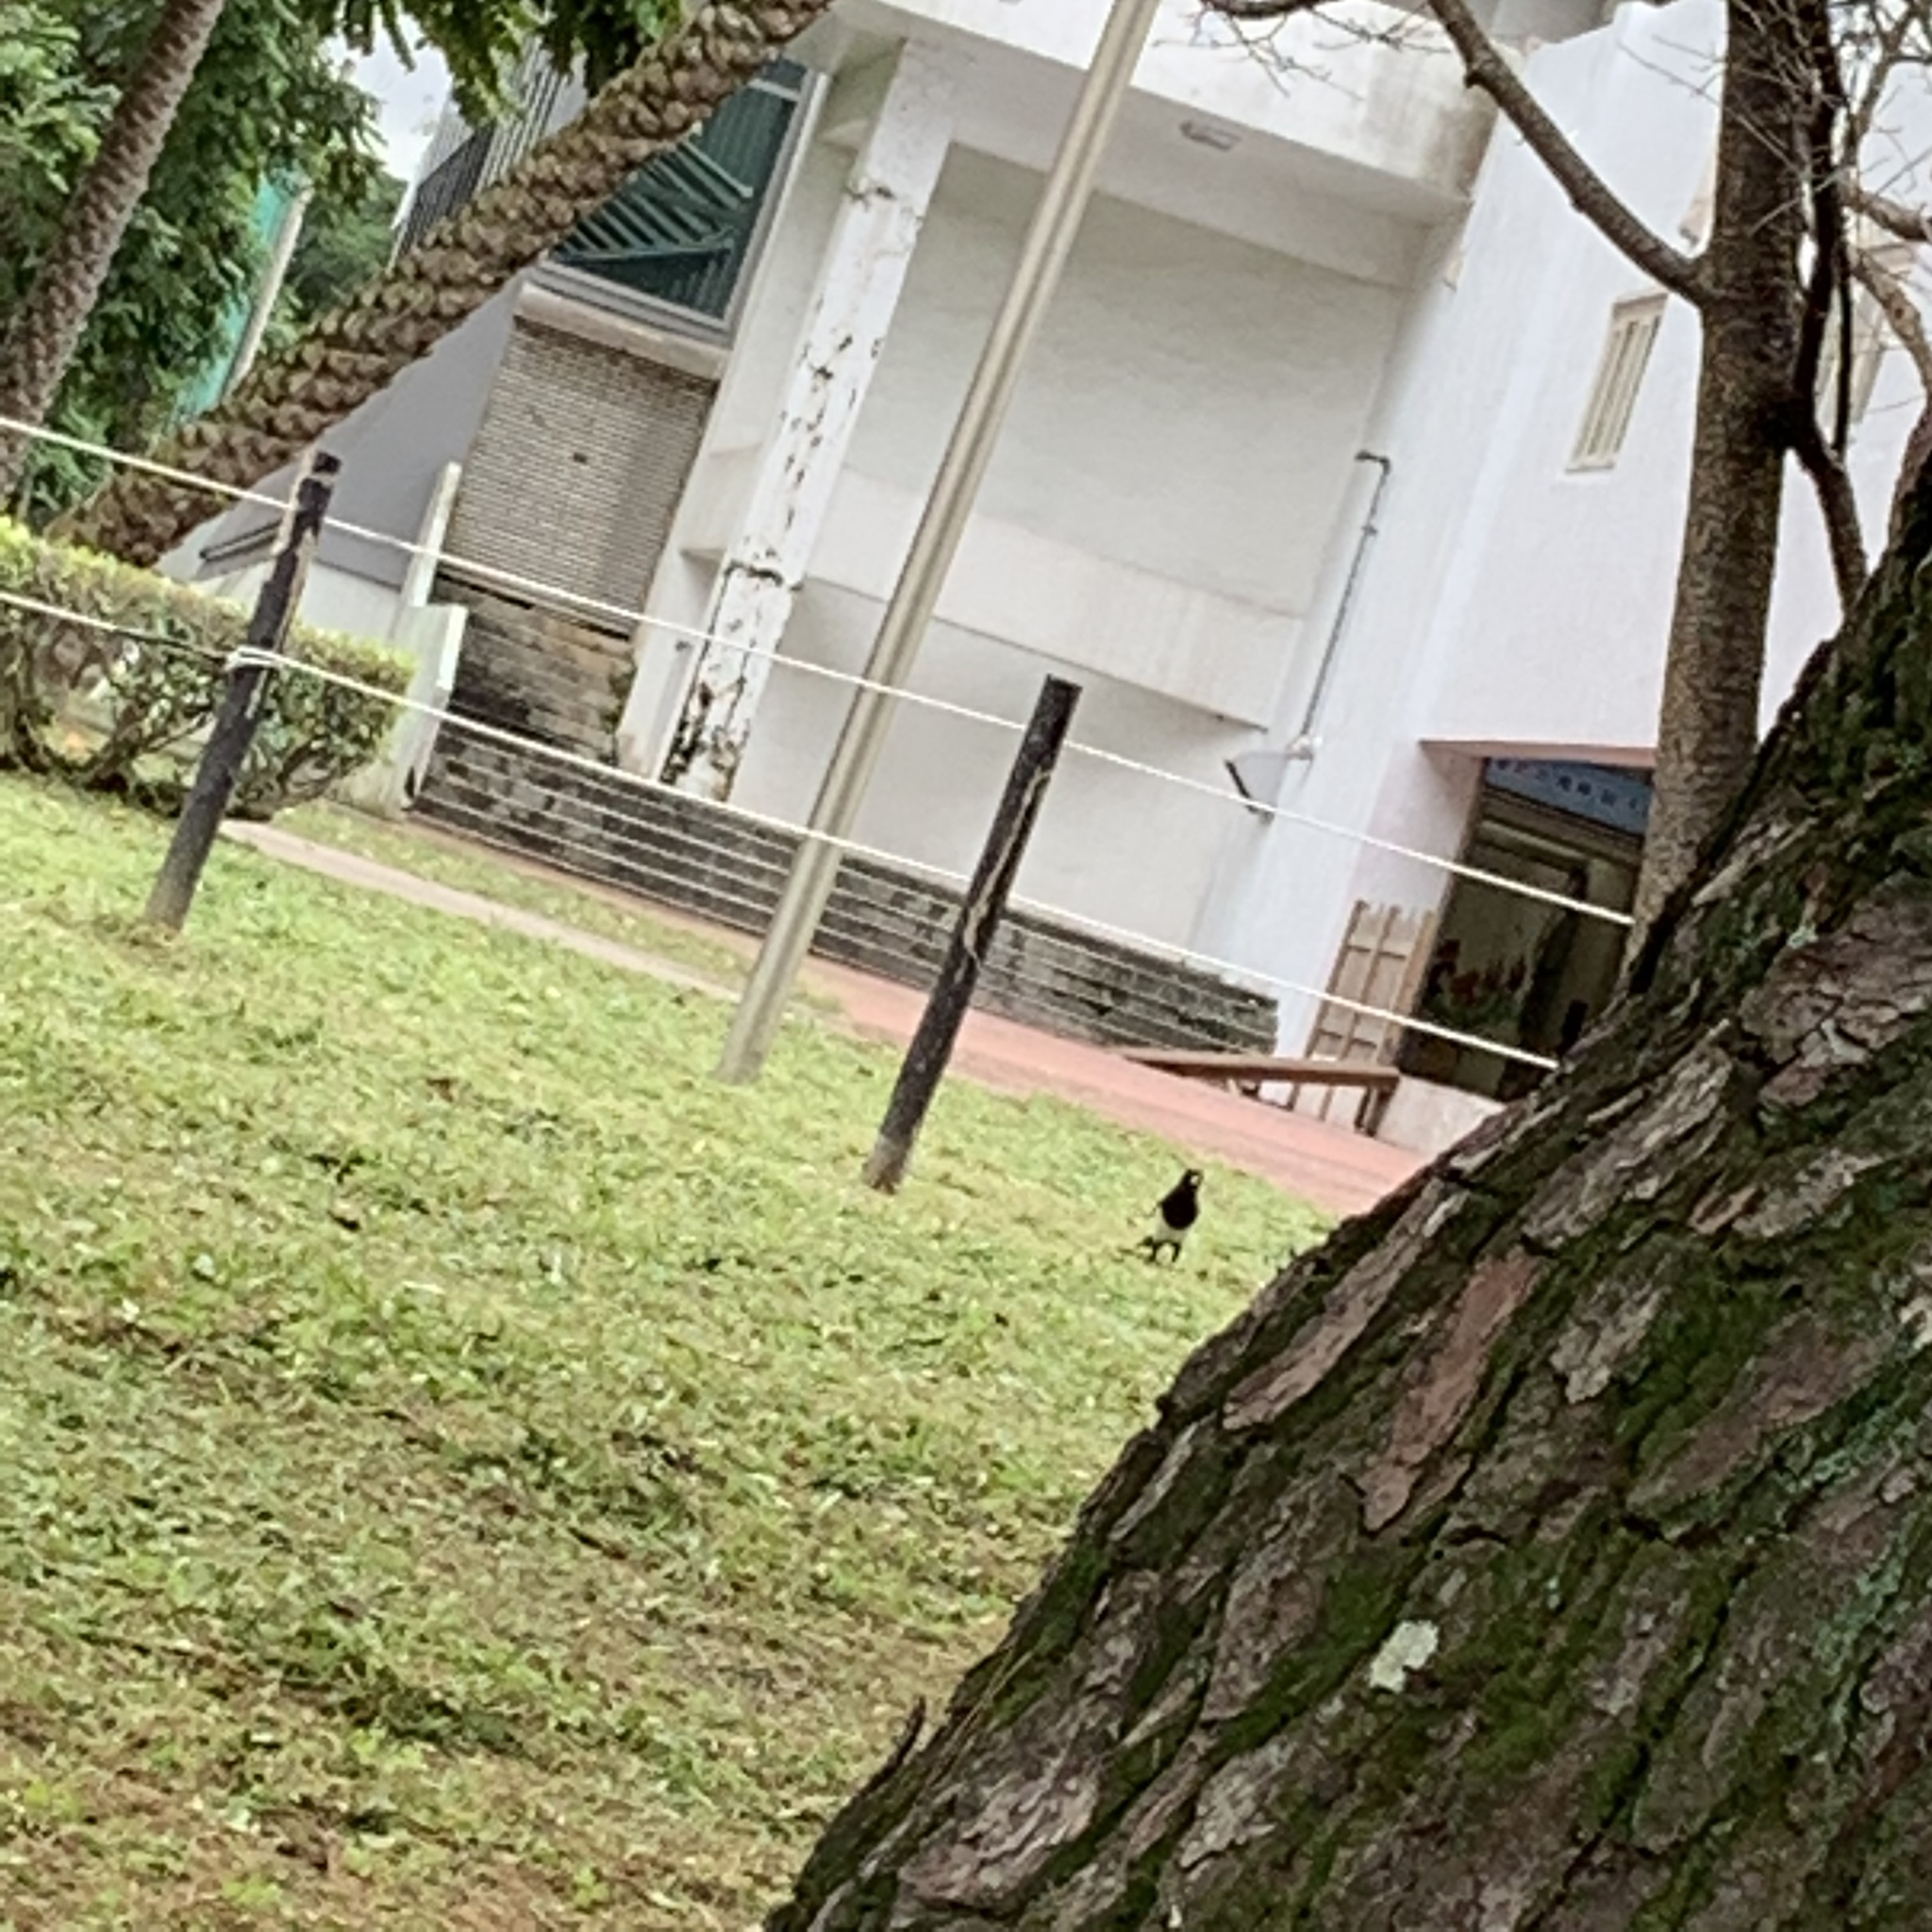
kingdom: Animalia
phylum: Chordata
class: Aves
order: Passeriformes
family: Corvidae
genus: Pica
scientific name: Pica serica
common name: Oriental magpie
